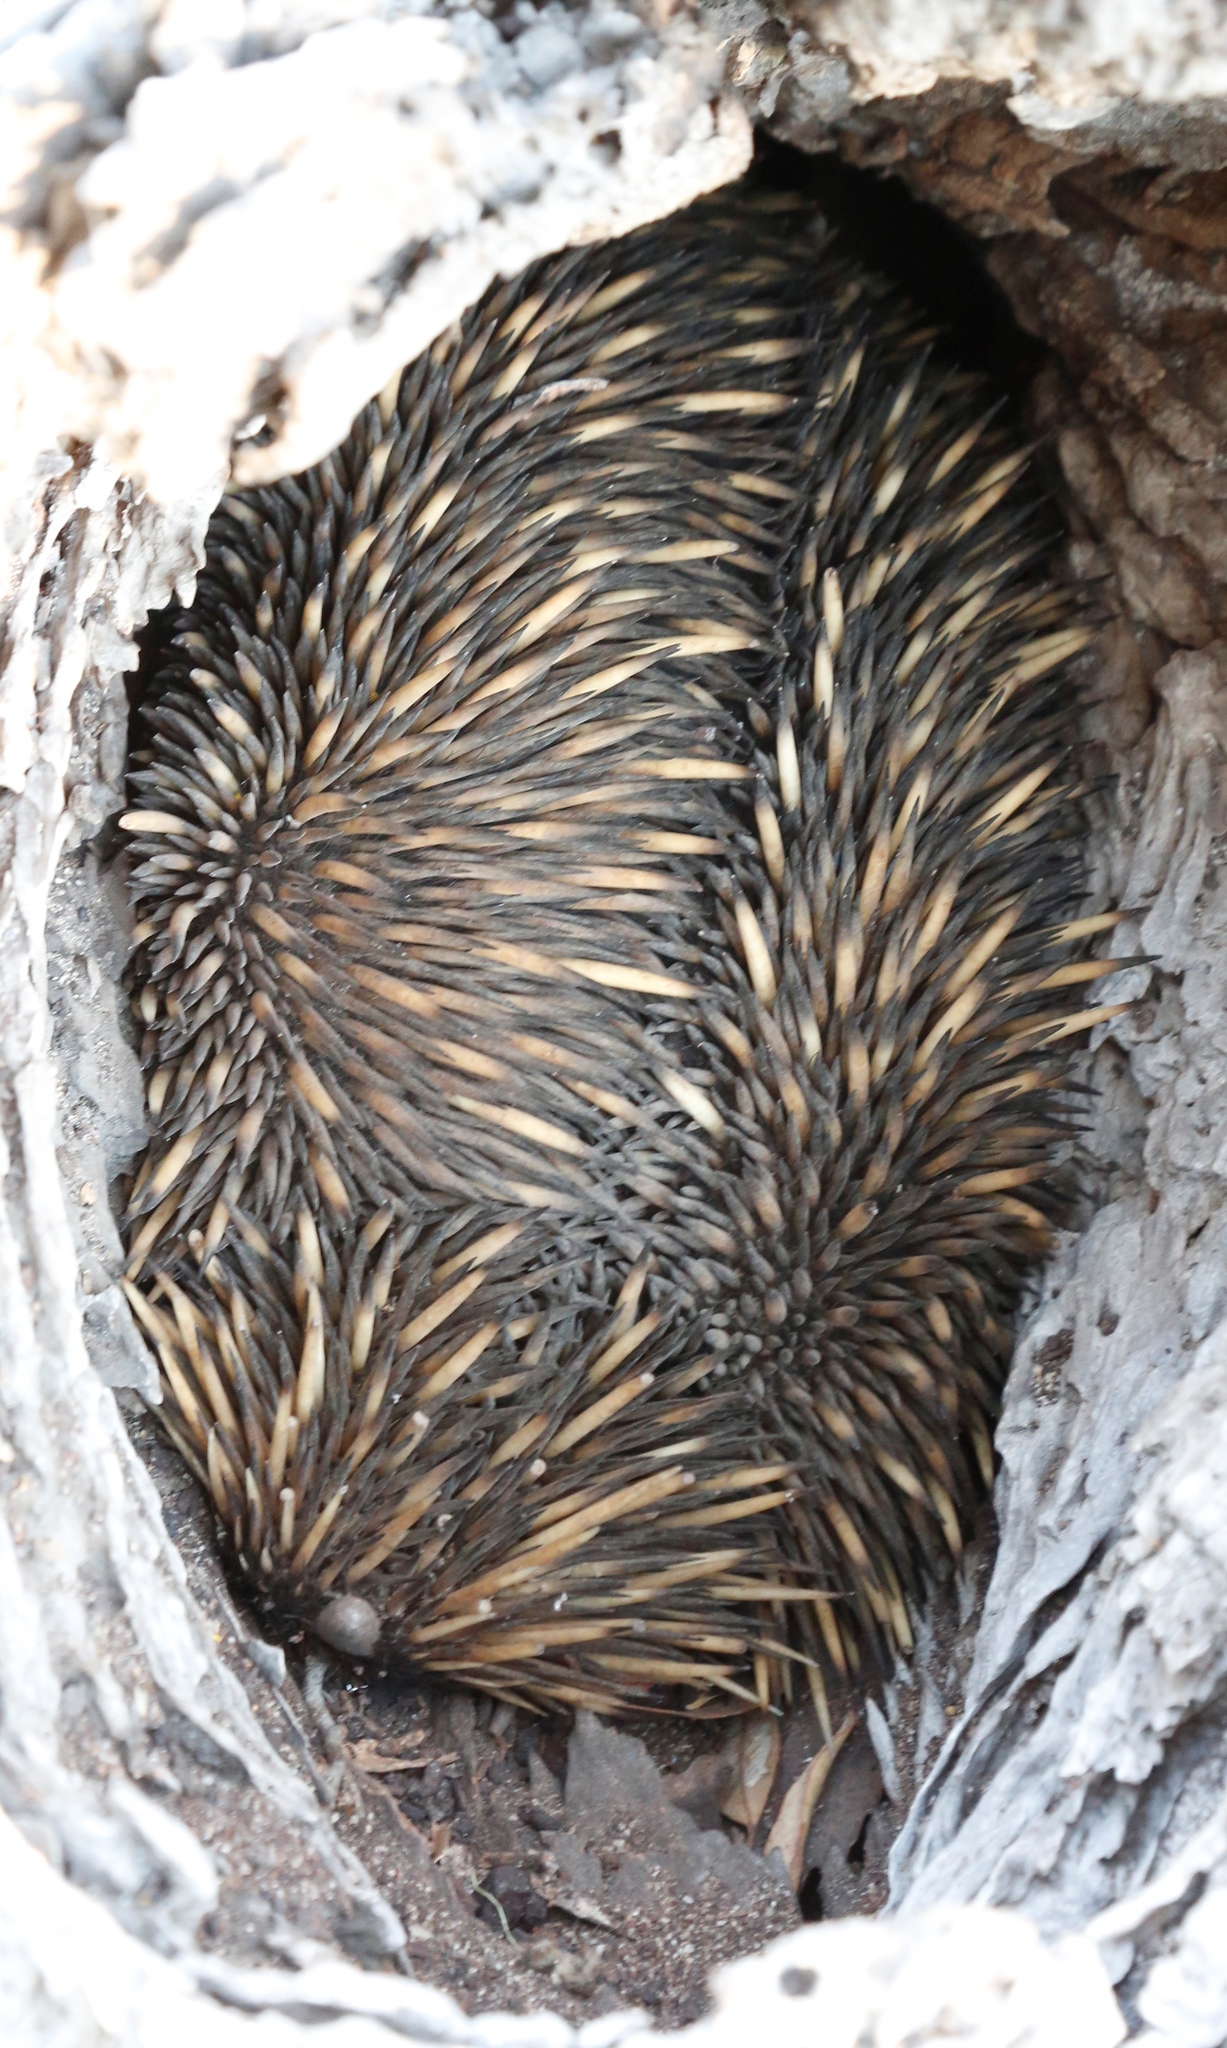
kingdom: Animalia
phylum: Chordata
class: Mammalia
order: Monotremata
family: Tachyglossidae
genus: Tachyglossus
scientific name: Tachyglossus aculeatus
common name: Short-beaked echidna
